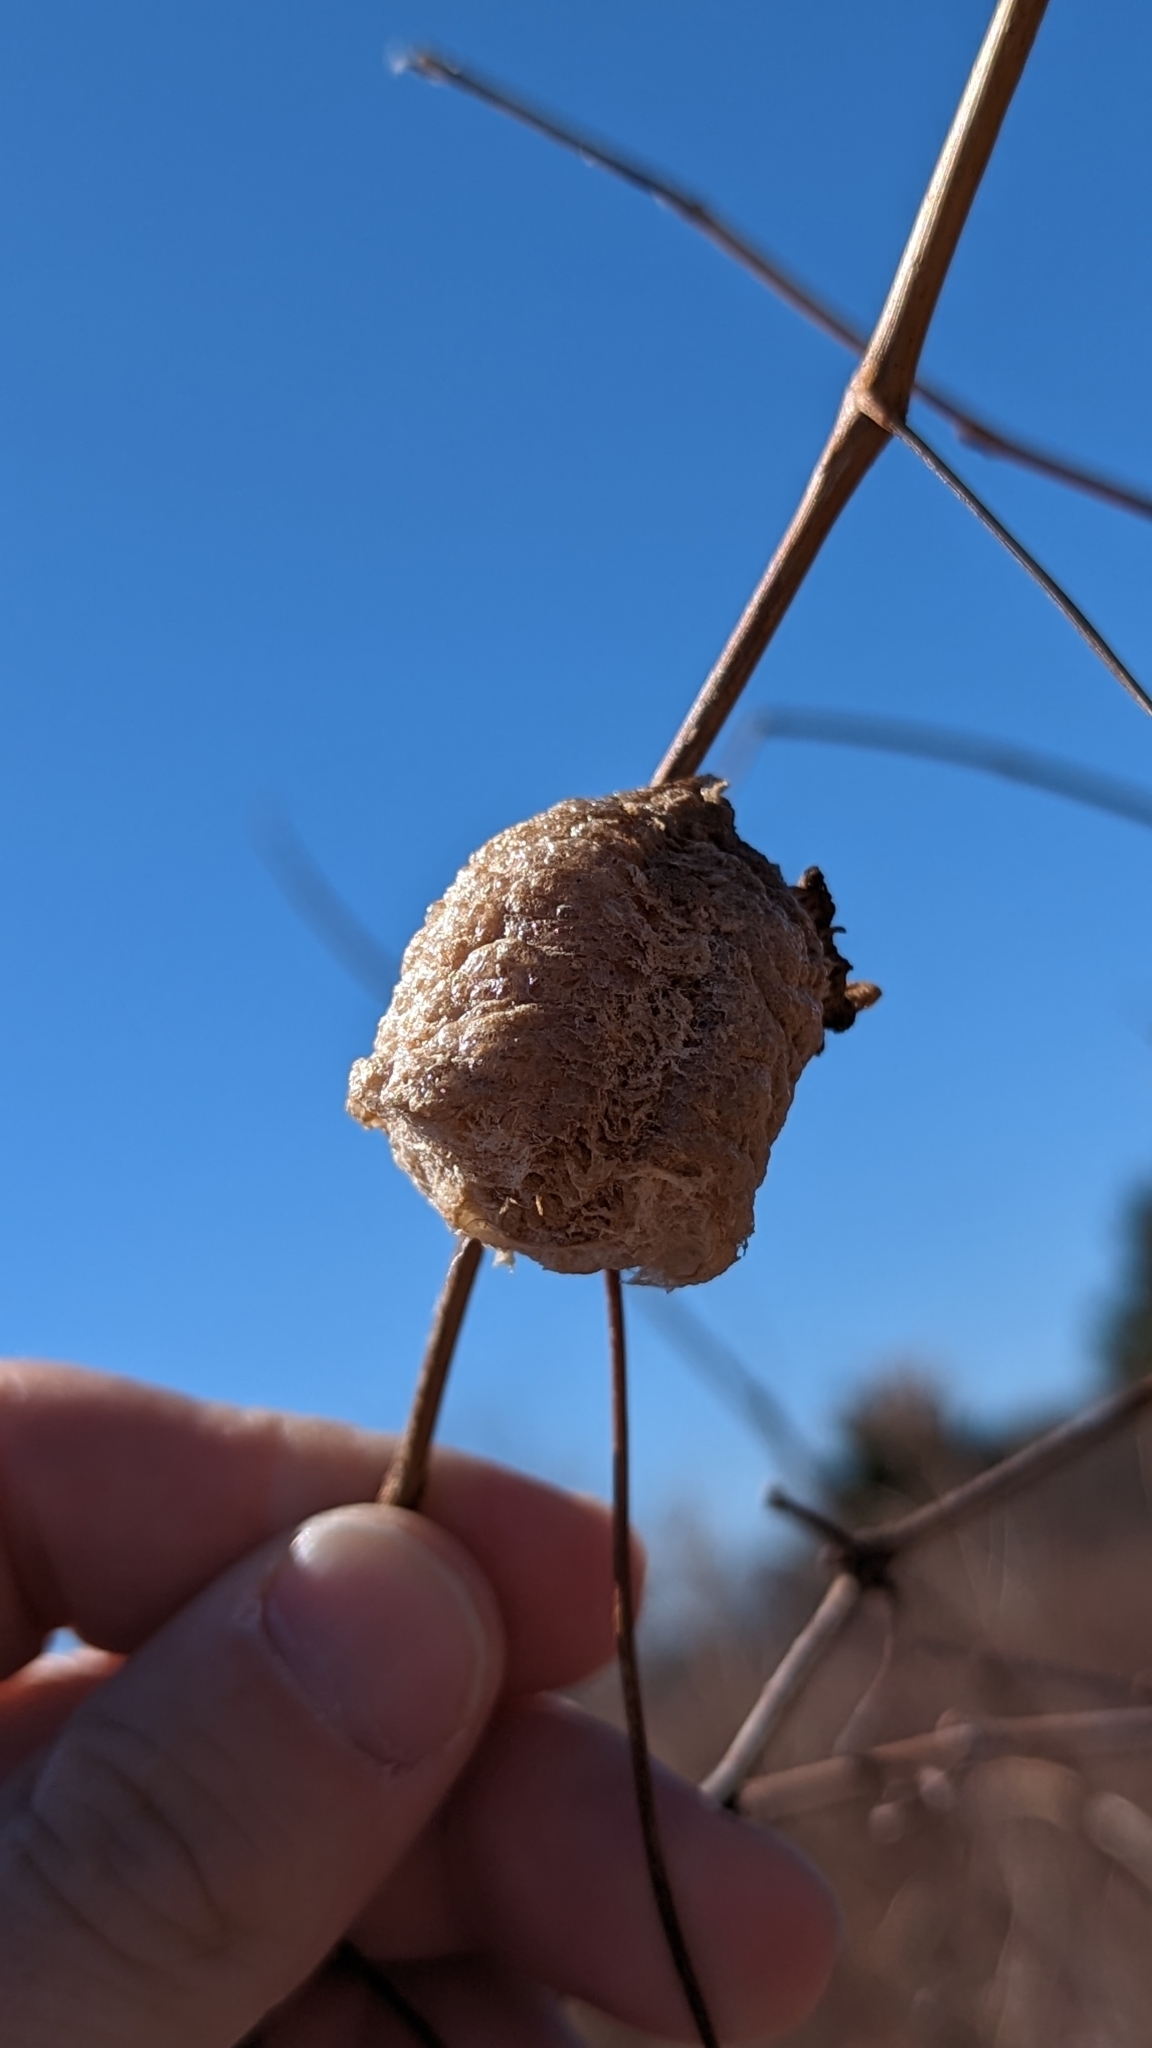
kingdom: Animalia
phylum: Arthropoda
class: Insecta
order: Mantodea
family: Mantidae
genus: Tenodera
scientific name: Tenodera sinensis
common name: Chinese mantis
